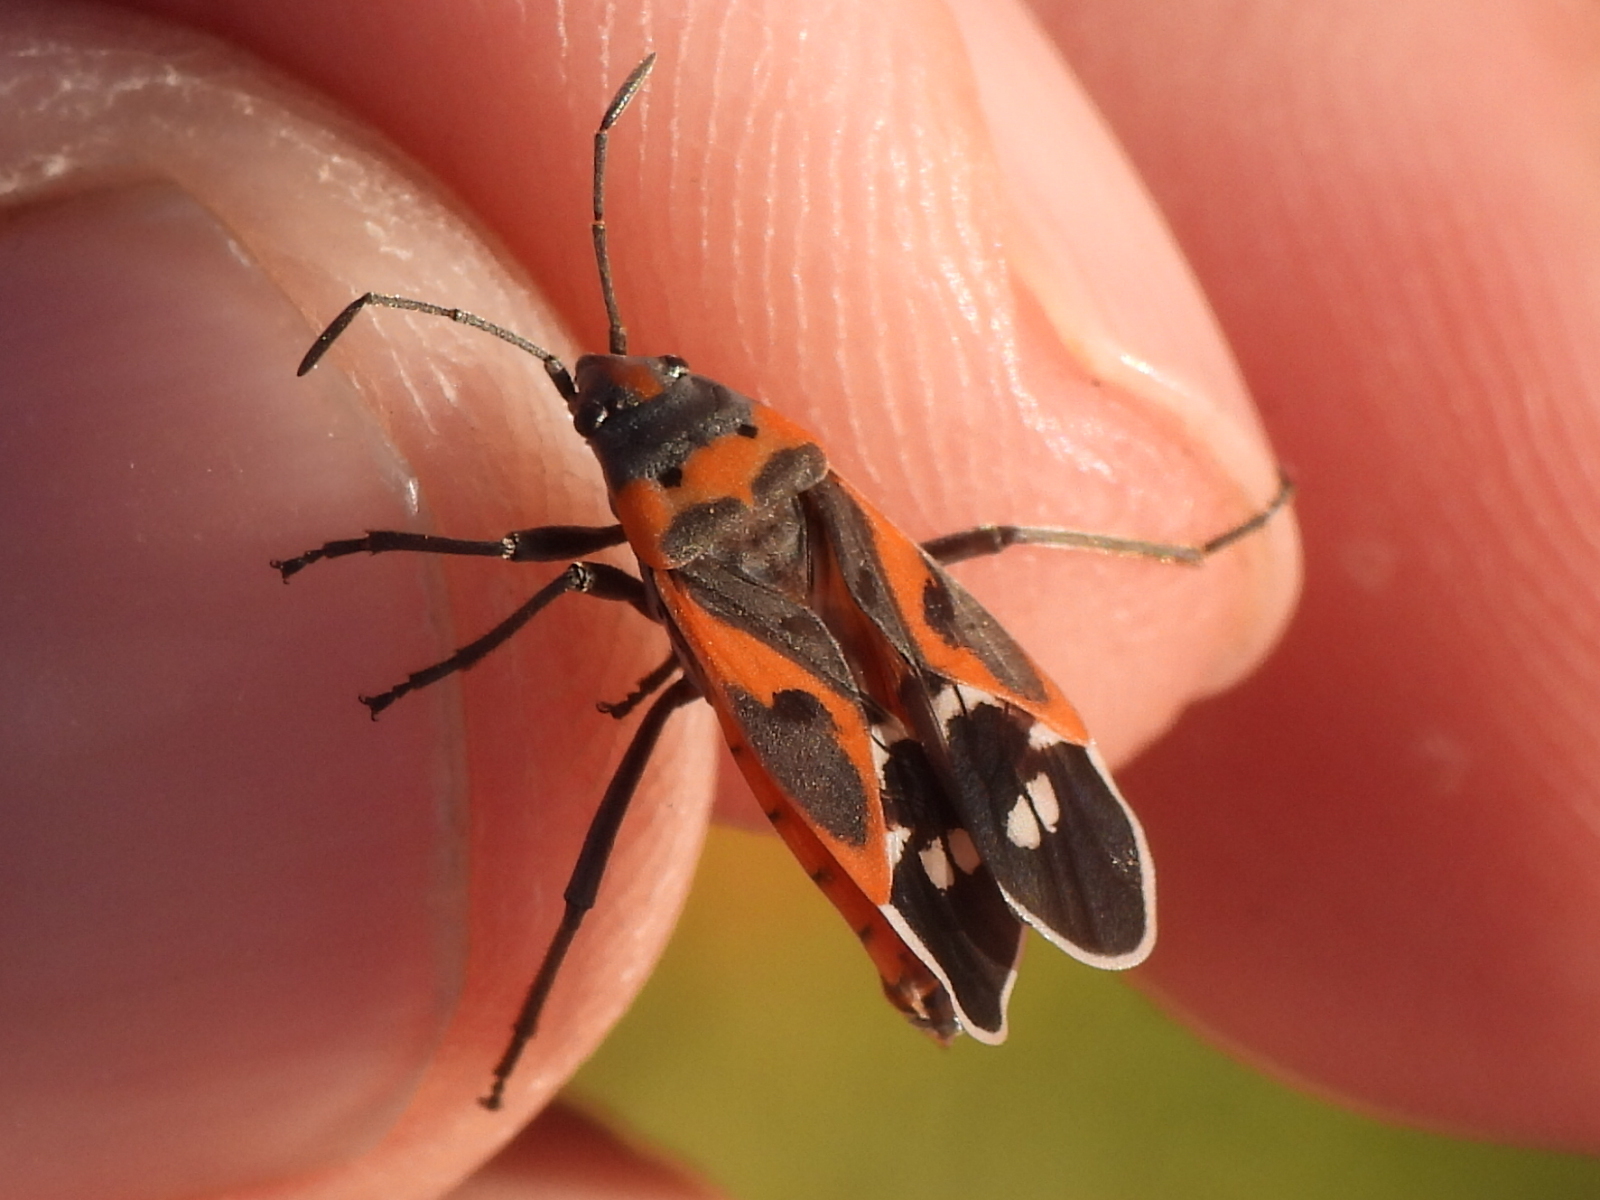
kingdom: Animalia
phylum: Arthropoda
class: Insecta
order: Hemiptera
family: Lygaeidae
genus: Lygaeus
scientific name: Lygaeus kalmii
